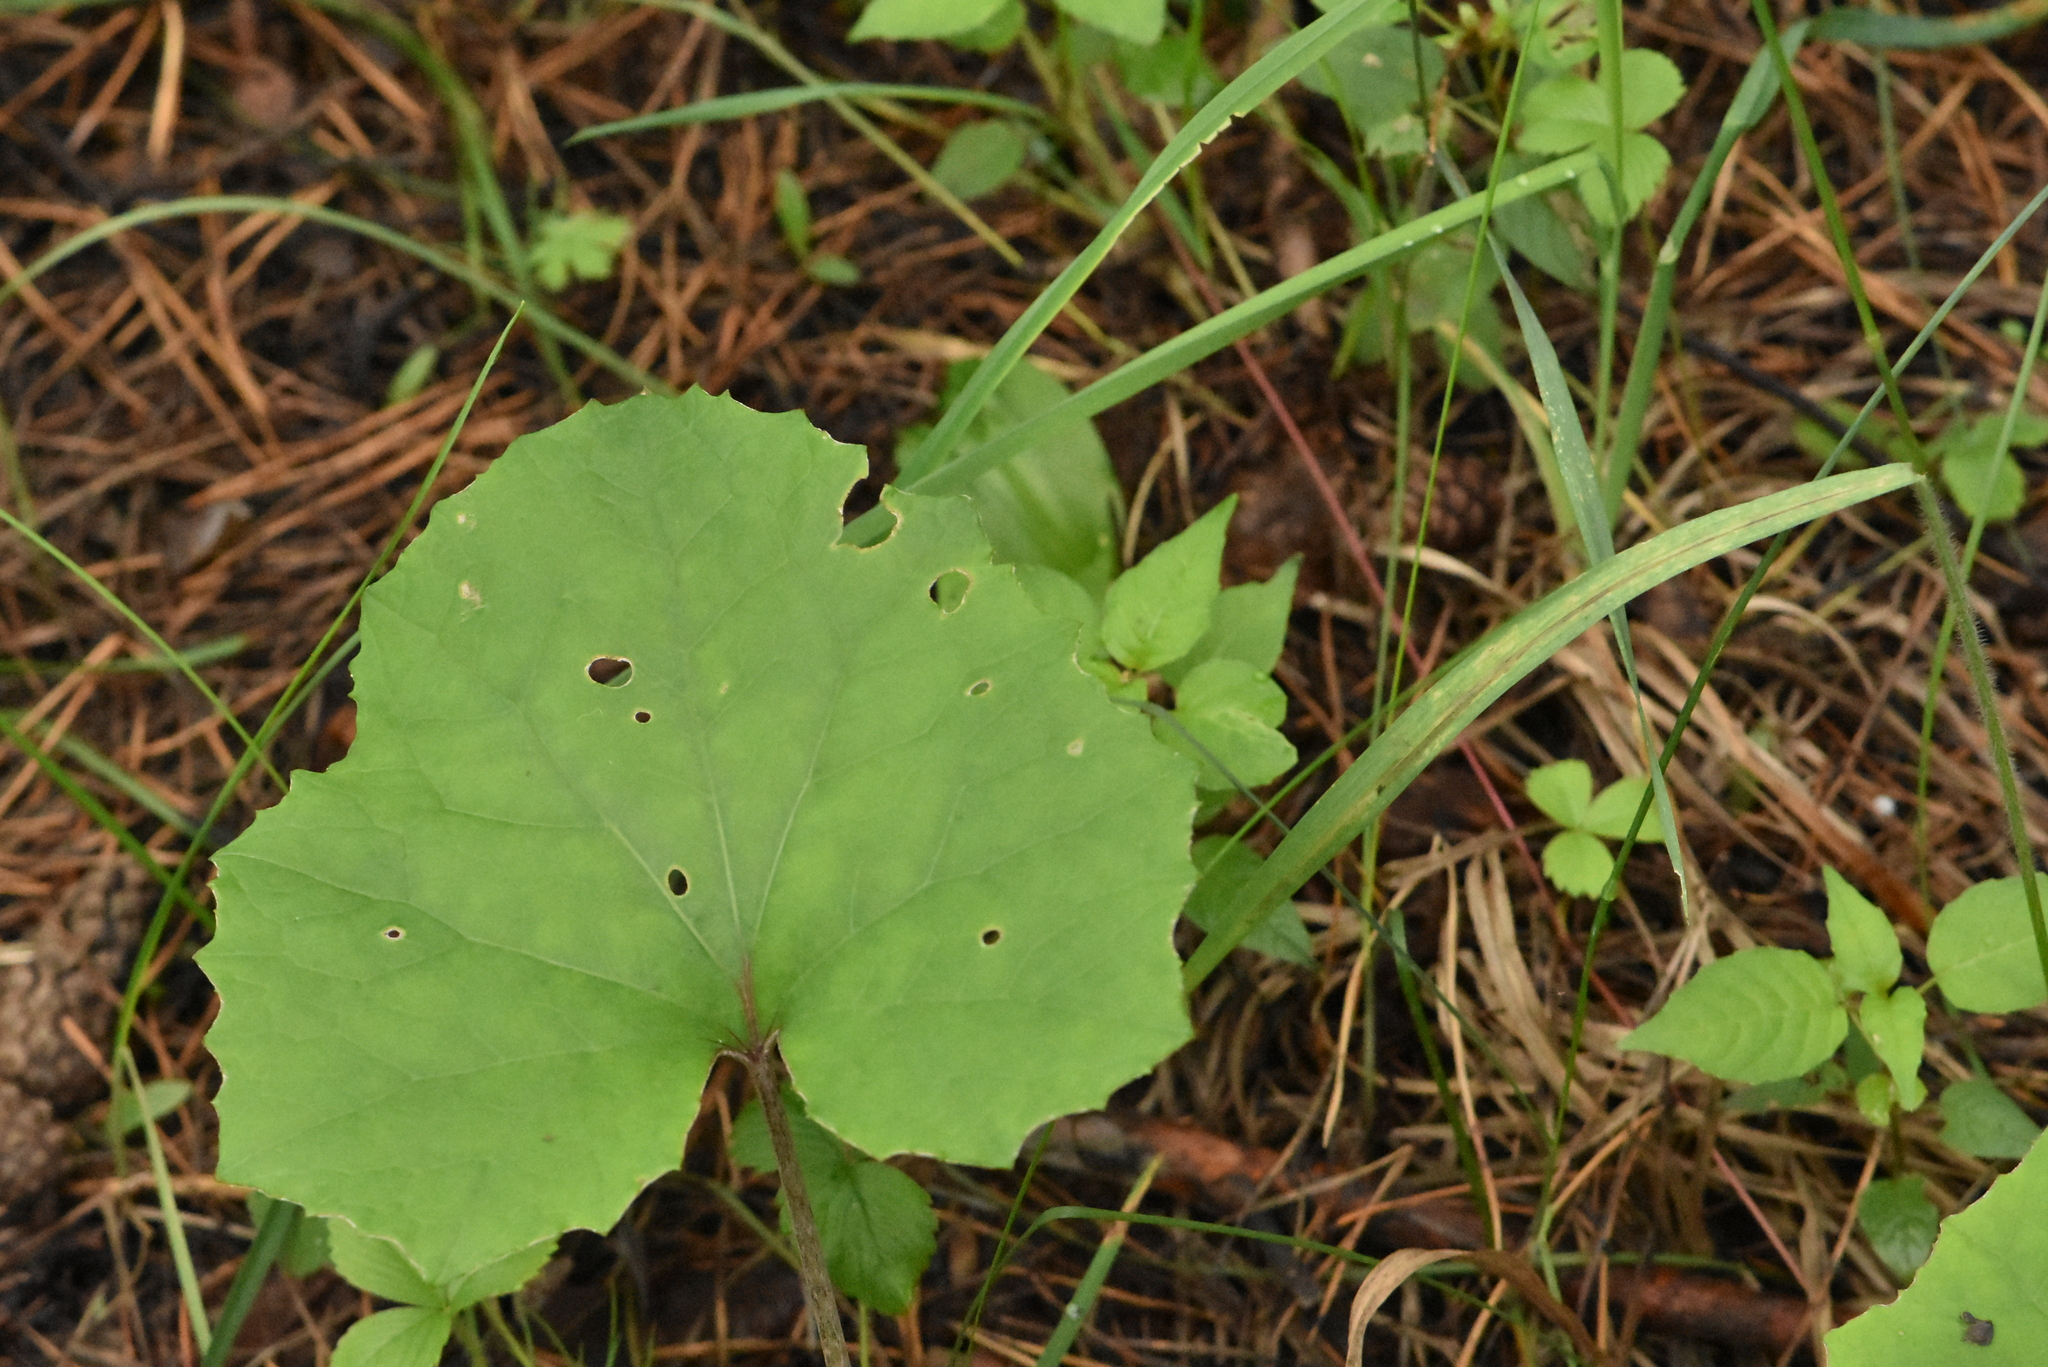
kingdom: Plantae
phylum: Tracheophyta
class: Magnoliopsida
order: Asterales
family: Asteraceae
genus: Tussilago
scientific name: Tussilago farfara
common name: Coltsfoot
